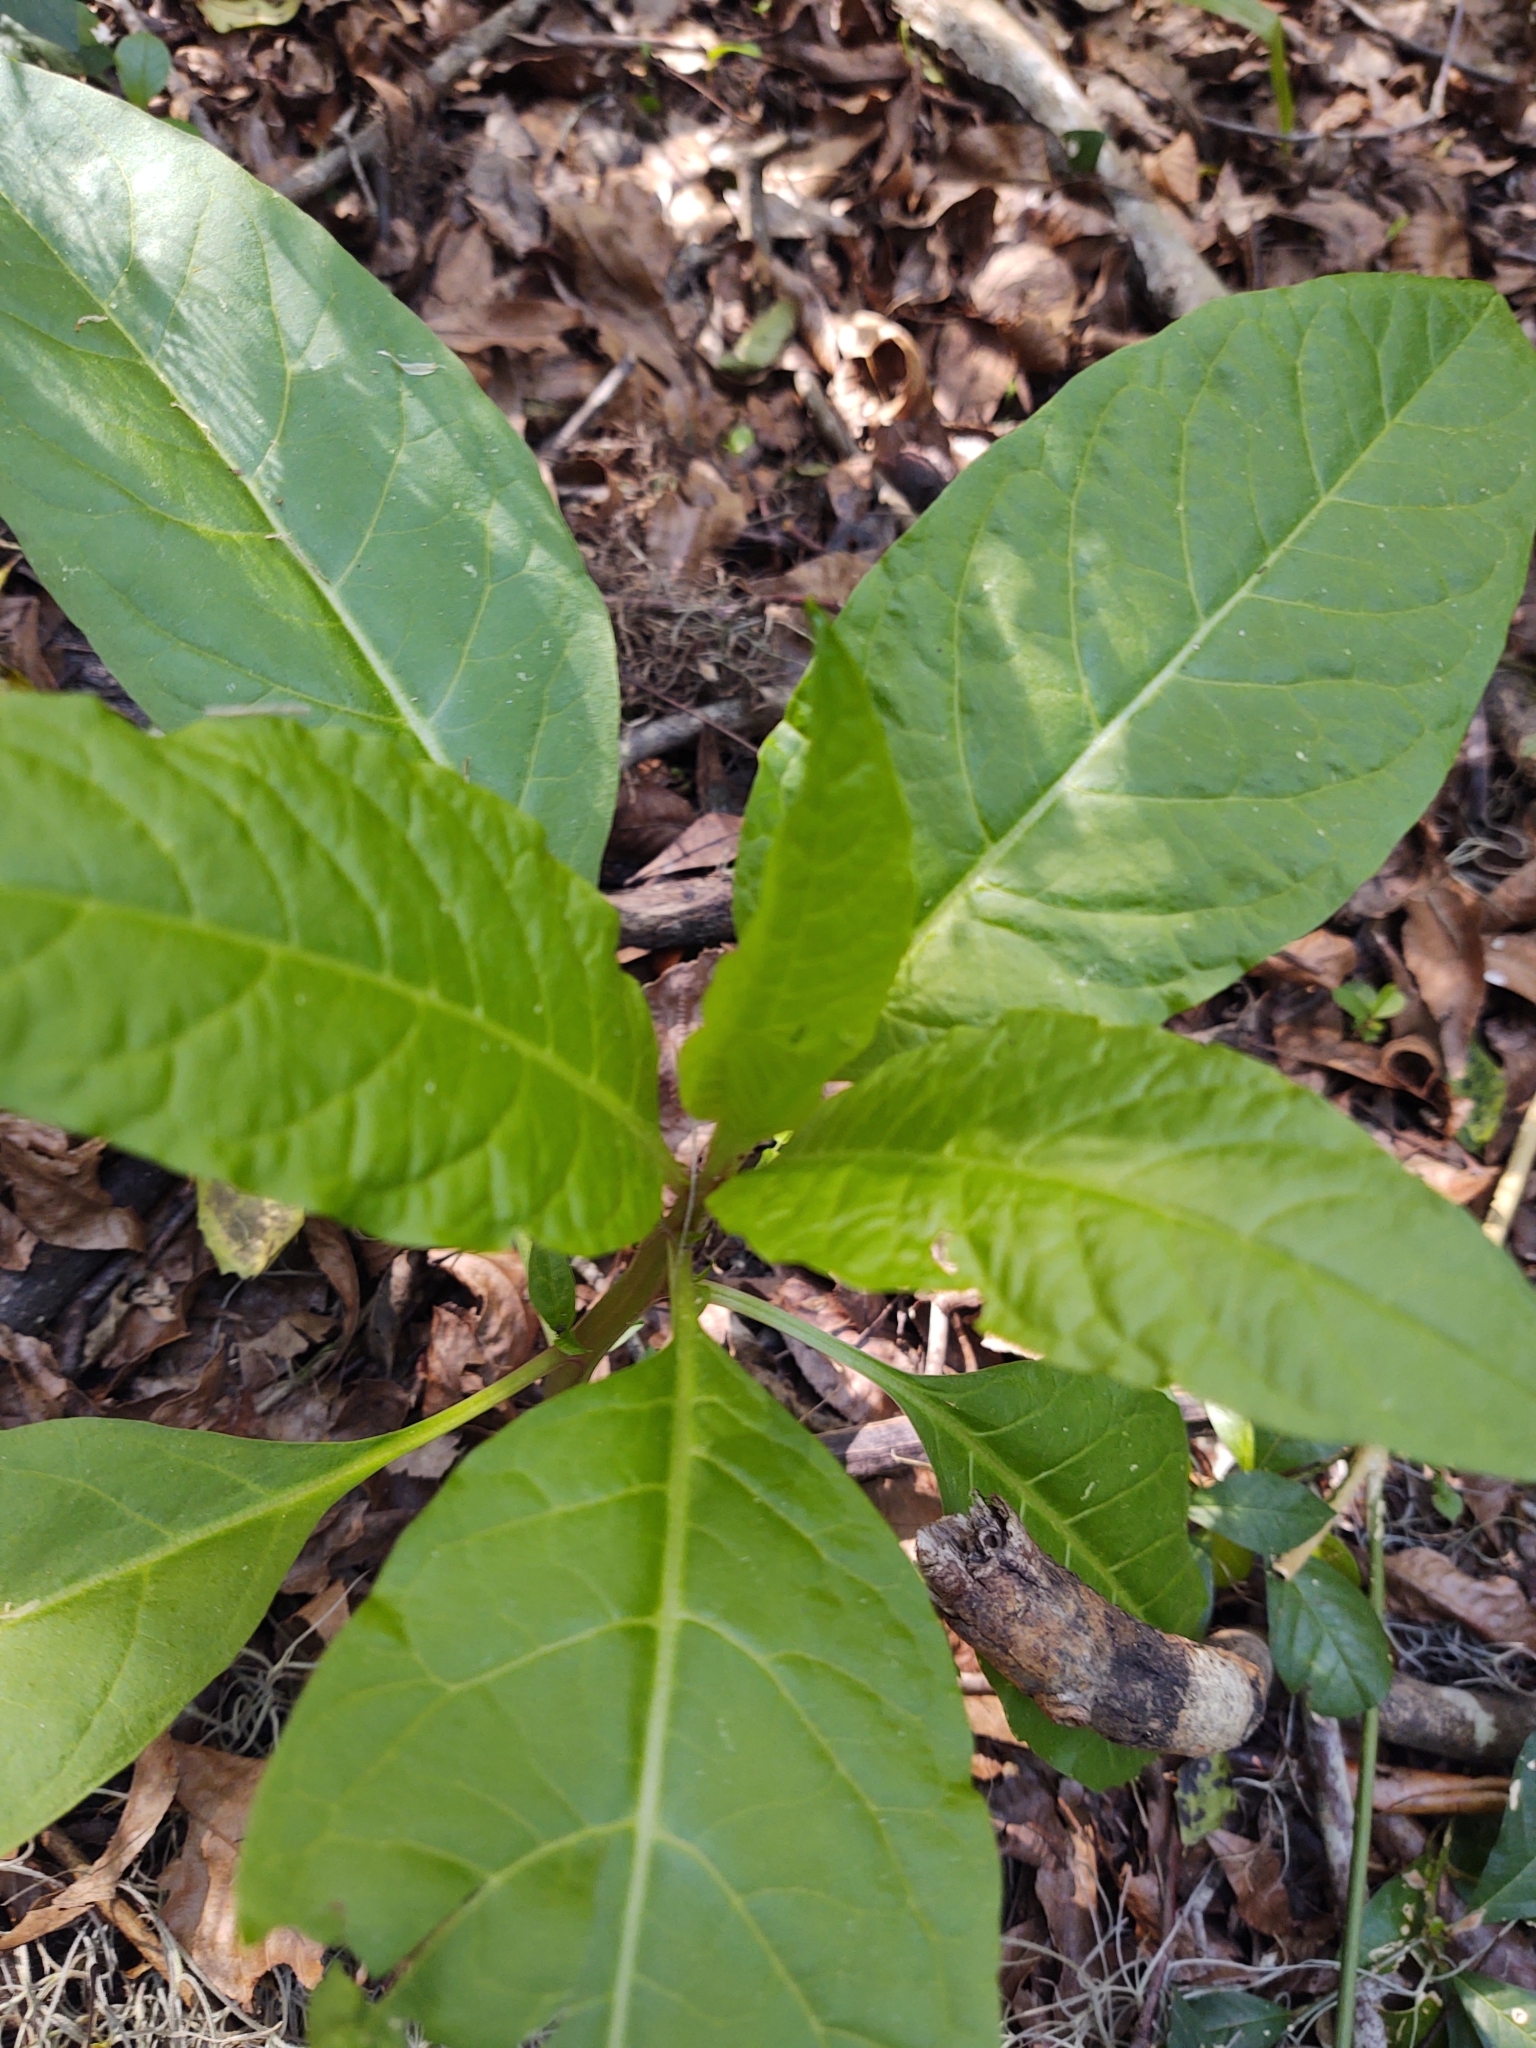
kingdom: Plantae
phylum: Tracheophyta
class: Magnoliopsida
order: Caryophyllales
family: Phytolaccaceae
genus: Phytolacca
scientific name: Phytolacca americana
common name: American pokeweed
